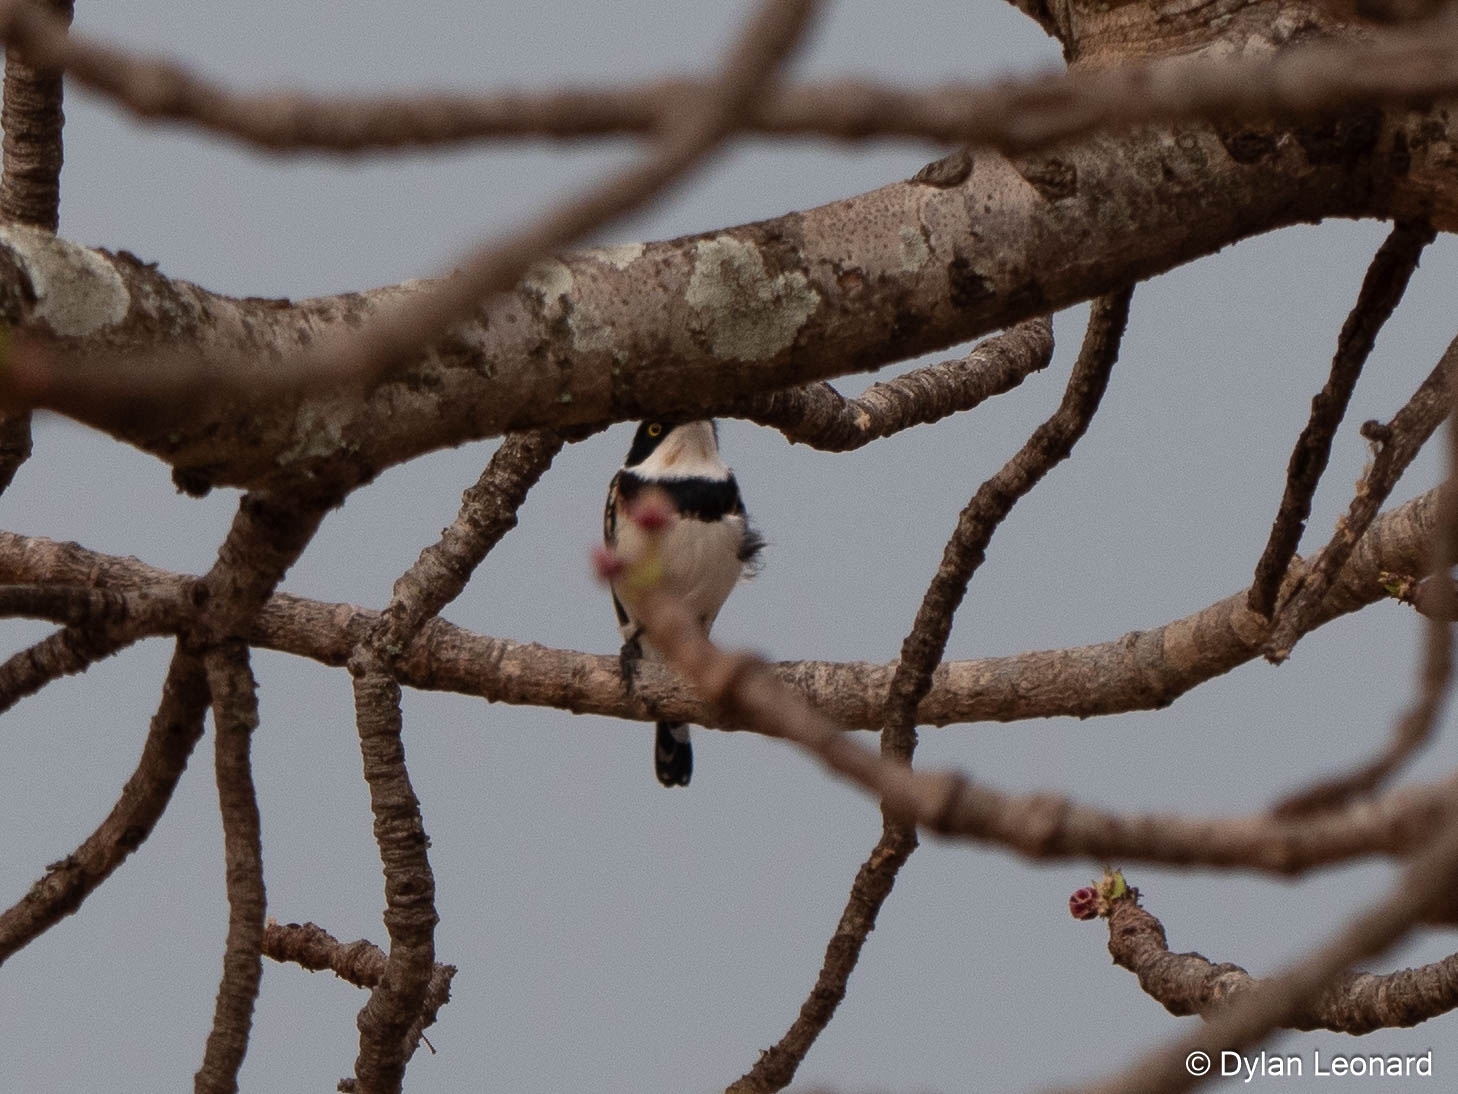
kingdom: Animalia
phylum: Chordata
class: Aves
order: Passeriformes
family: Platysteiridae
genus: Batis
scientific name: Batis molitor
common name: Chinspot batis
